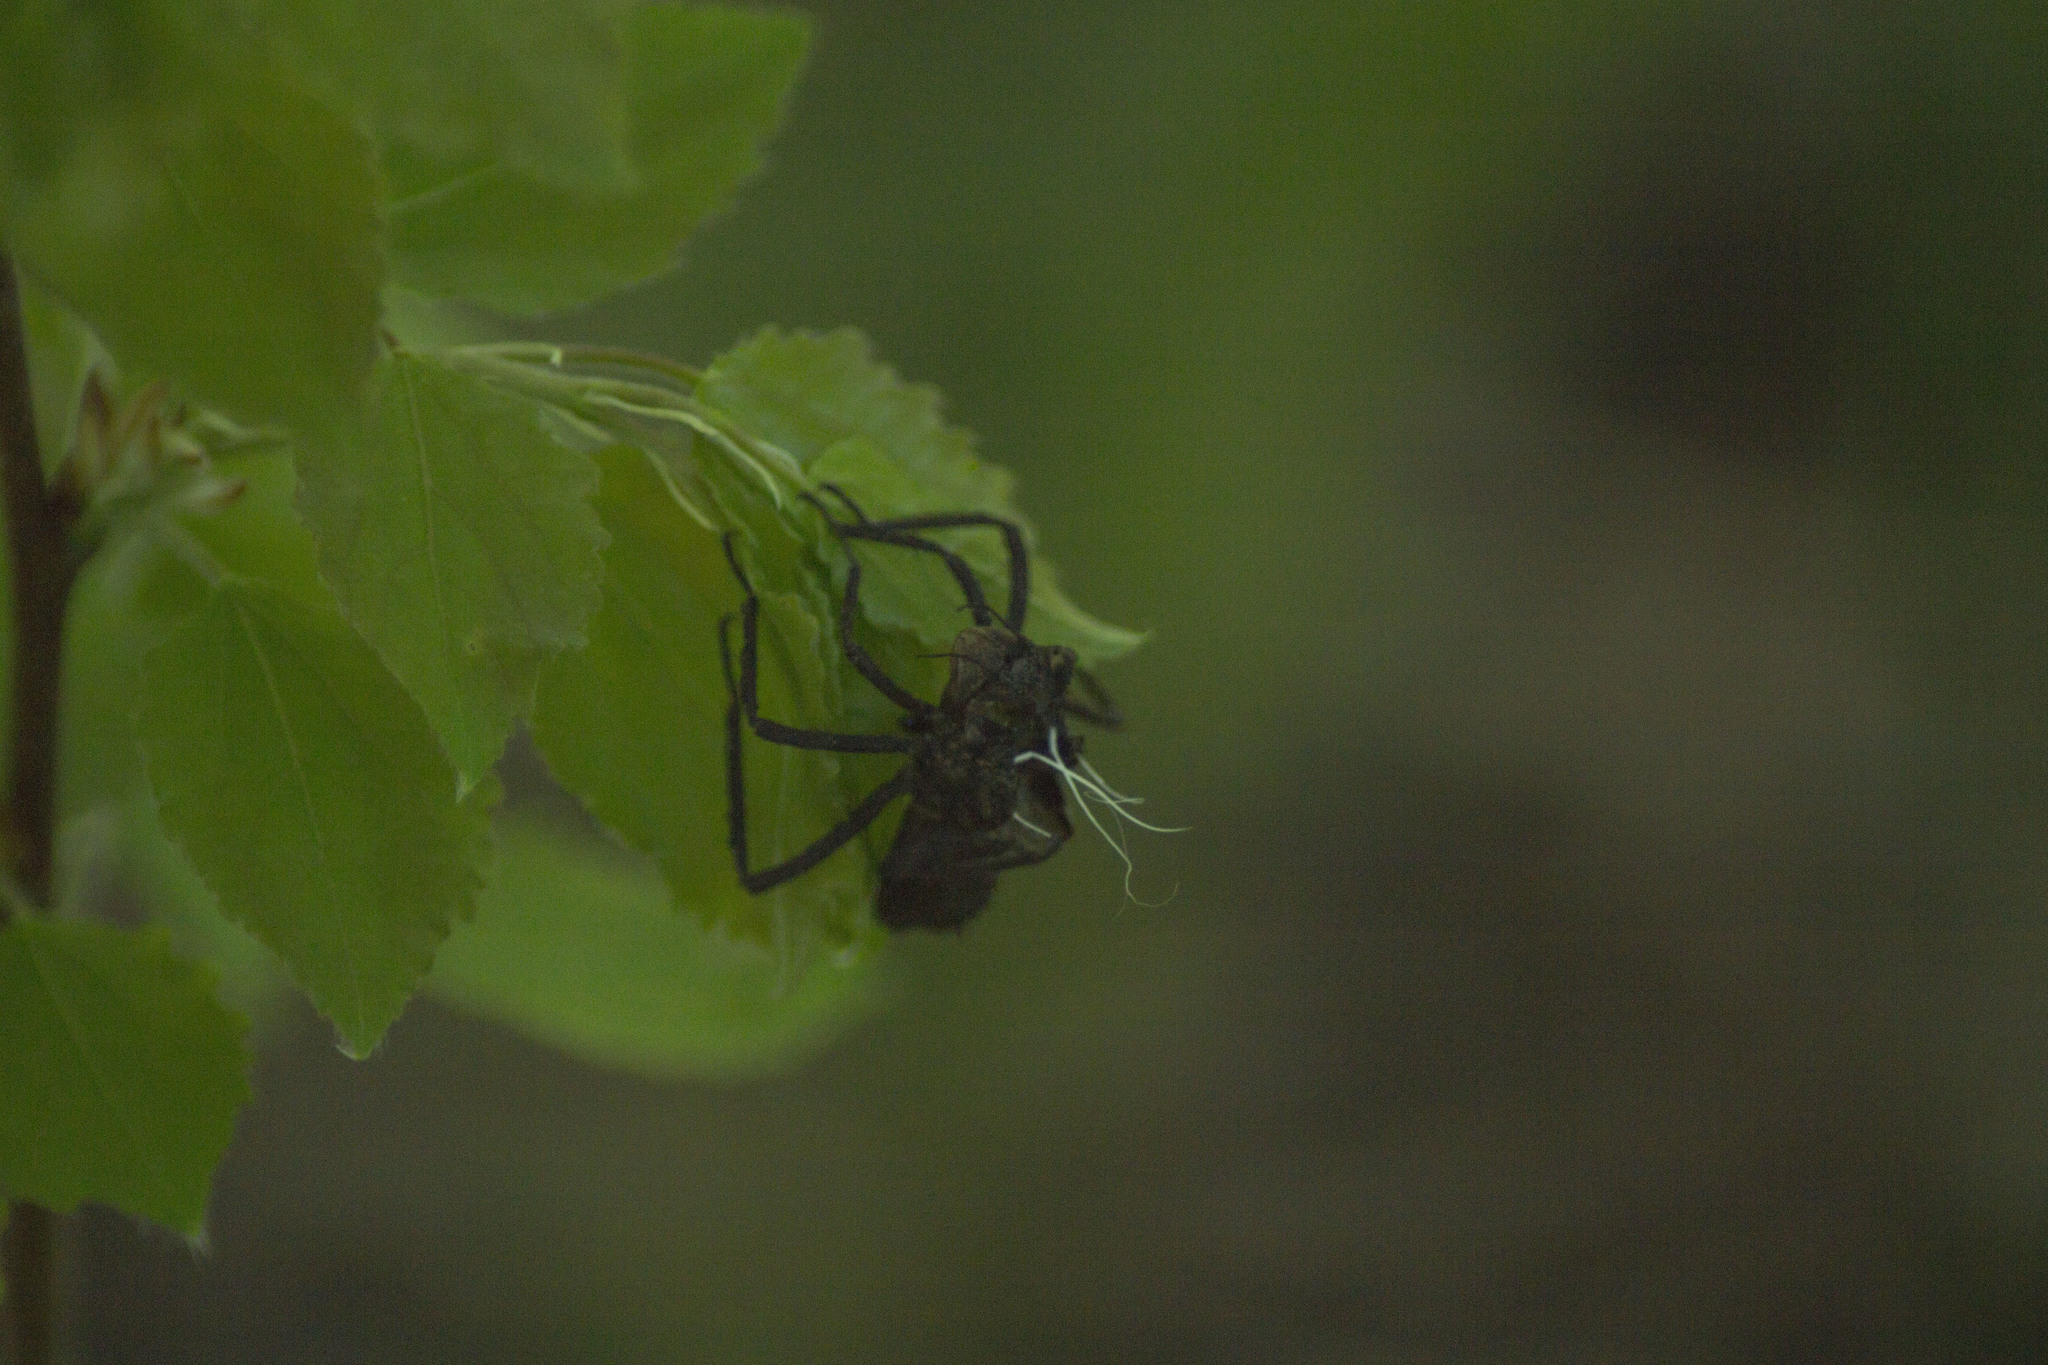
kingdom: Animalia
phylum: Arthropoda
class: Insecta
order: Odonata
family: Corduliidae
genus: Cordulia
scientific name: Cordulia aenea
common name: Downy emerald
